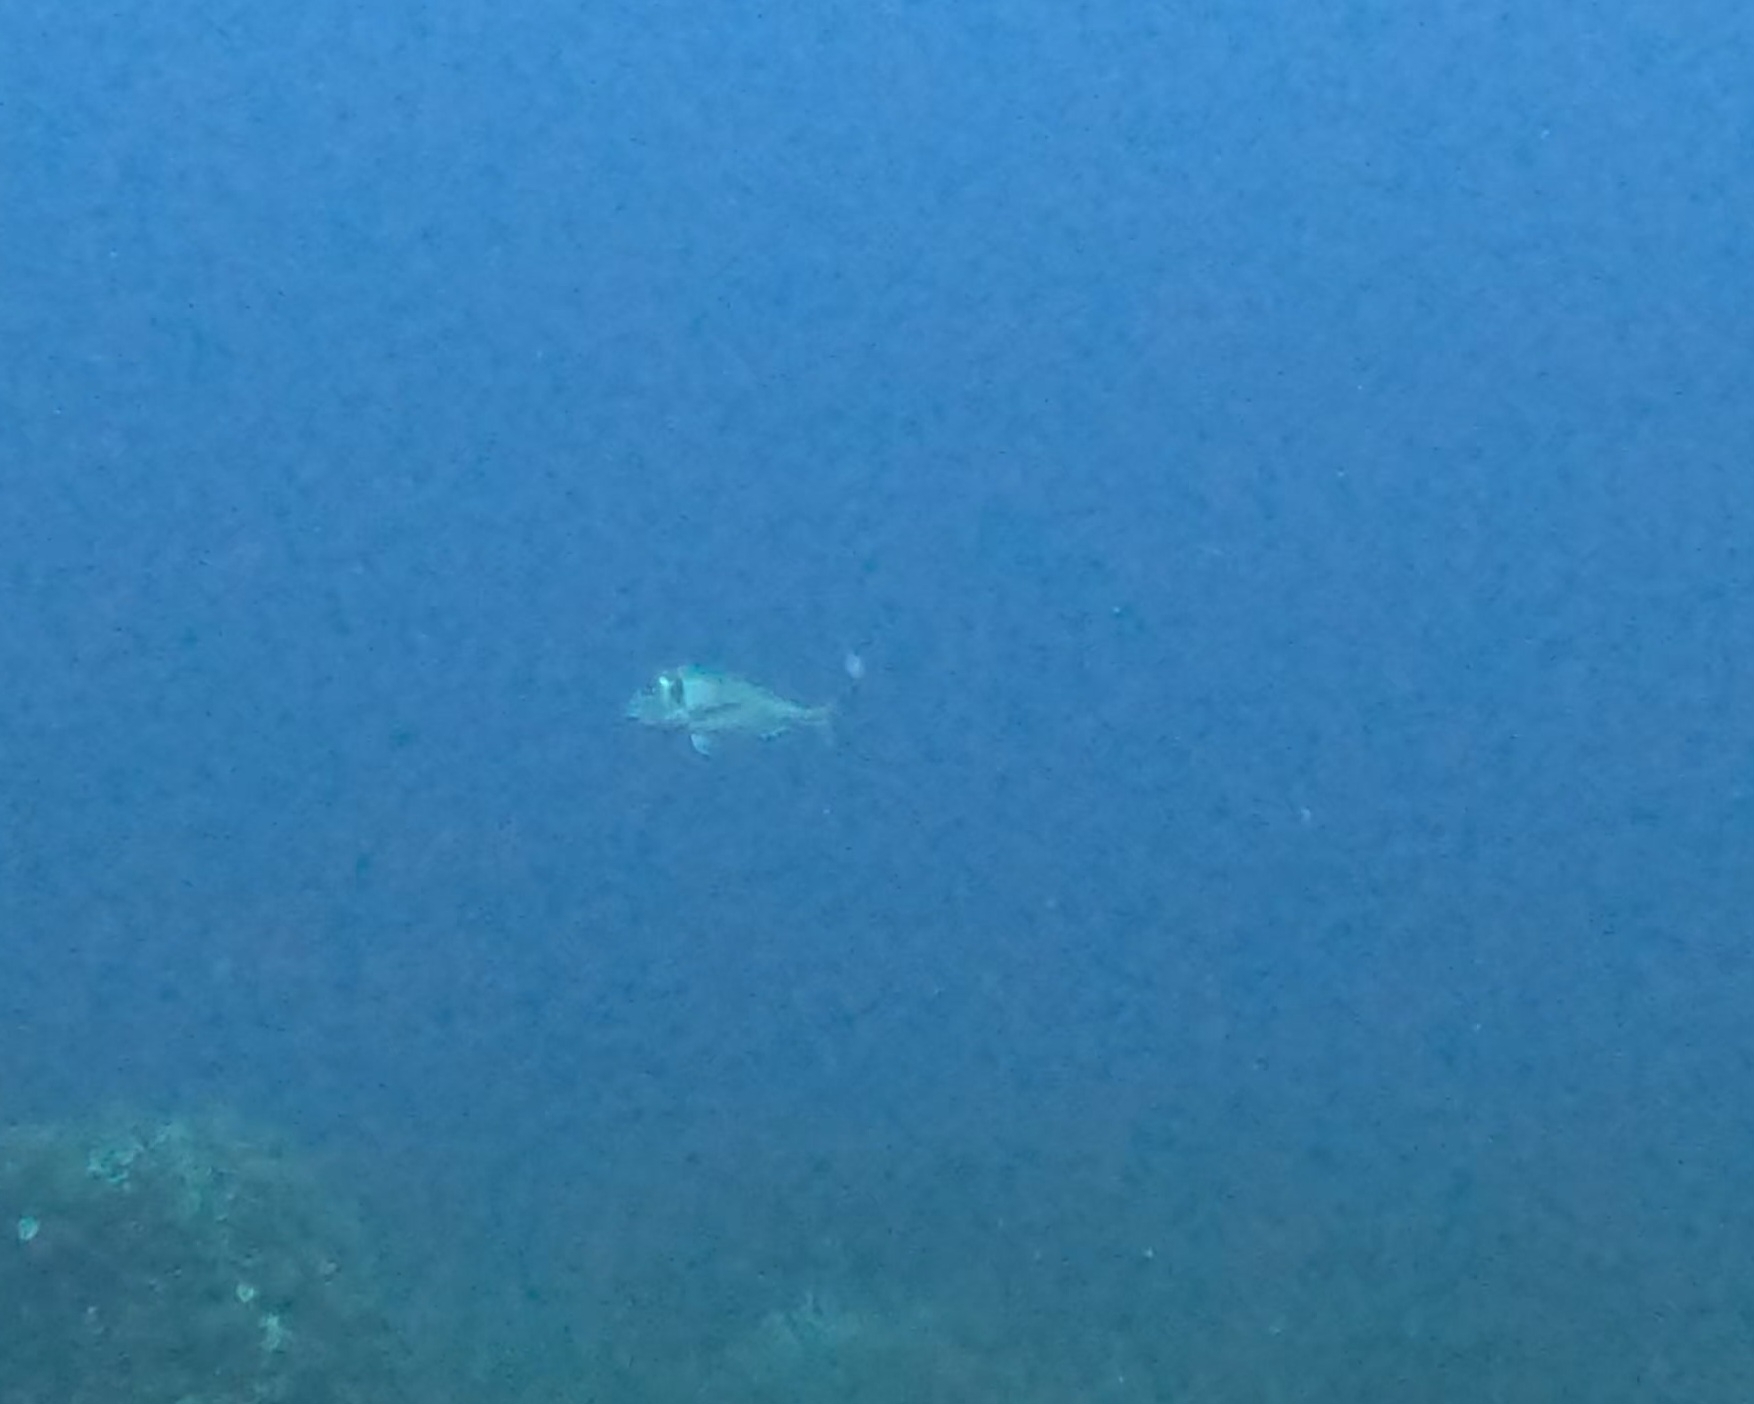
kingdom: Animalia
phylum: Chordata
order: Perciformes
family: Sparidae
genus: Sparus
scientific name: Sparus aurata
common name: Gilthead
